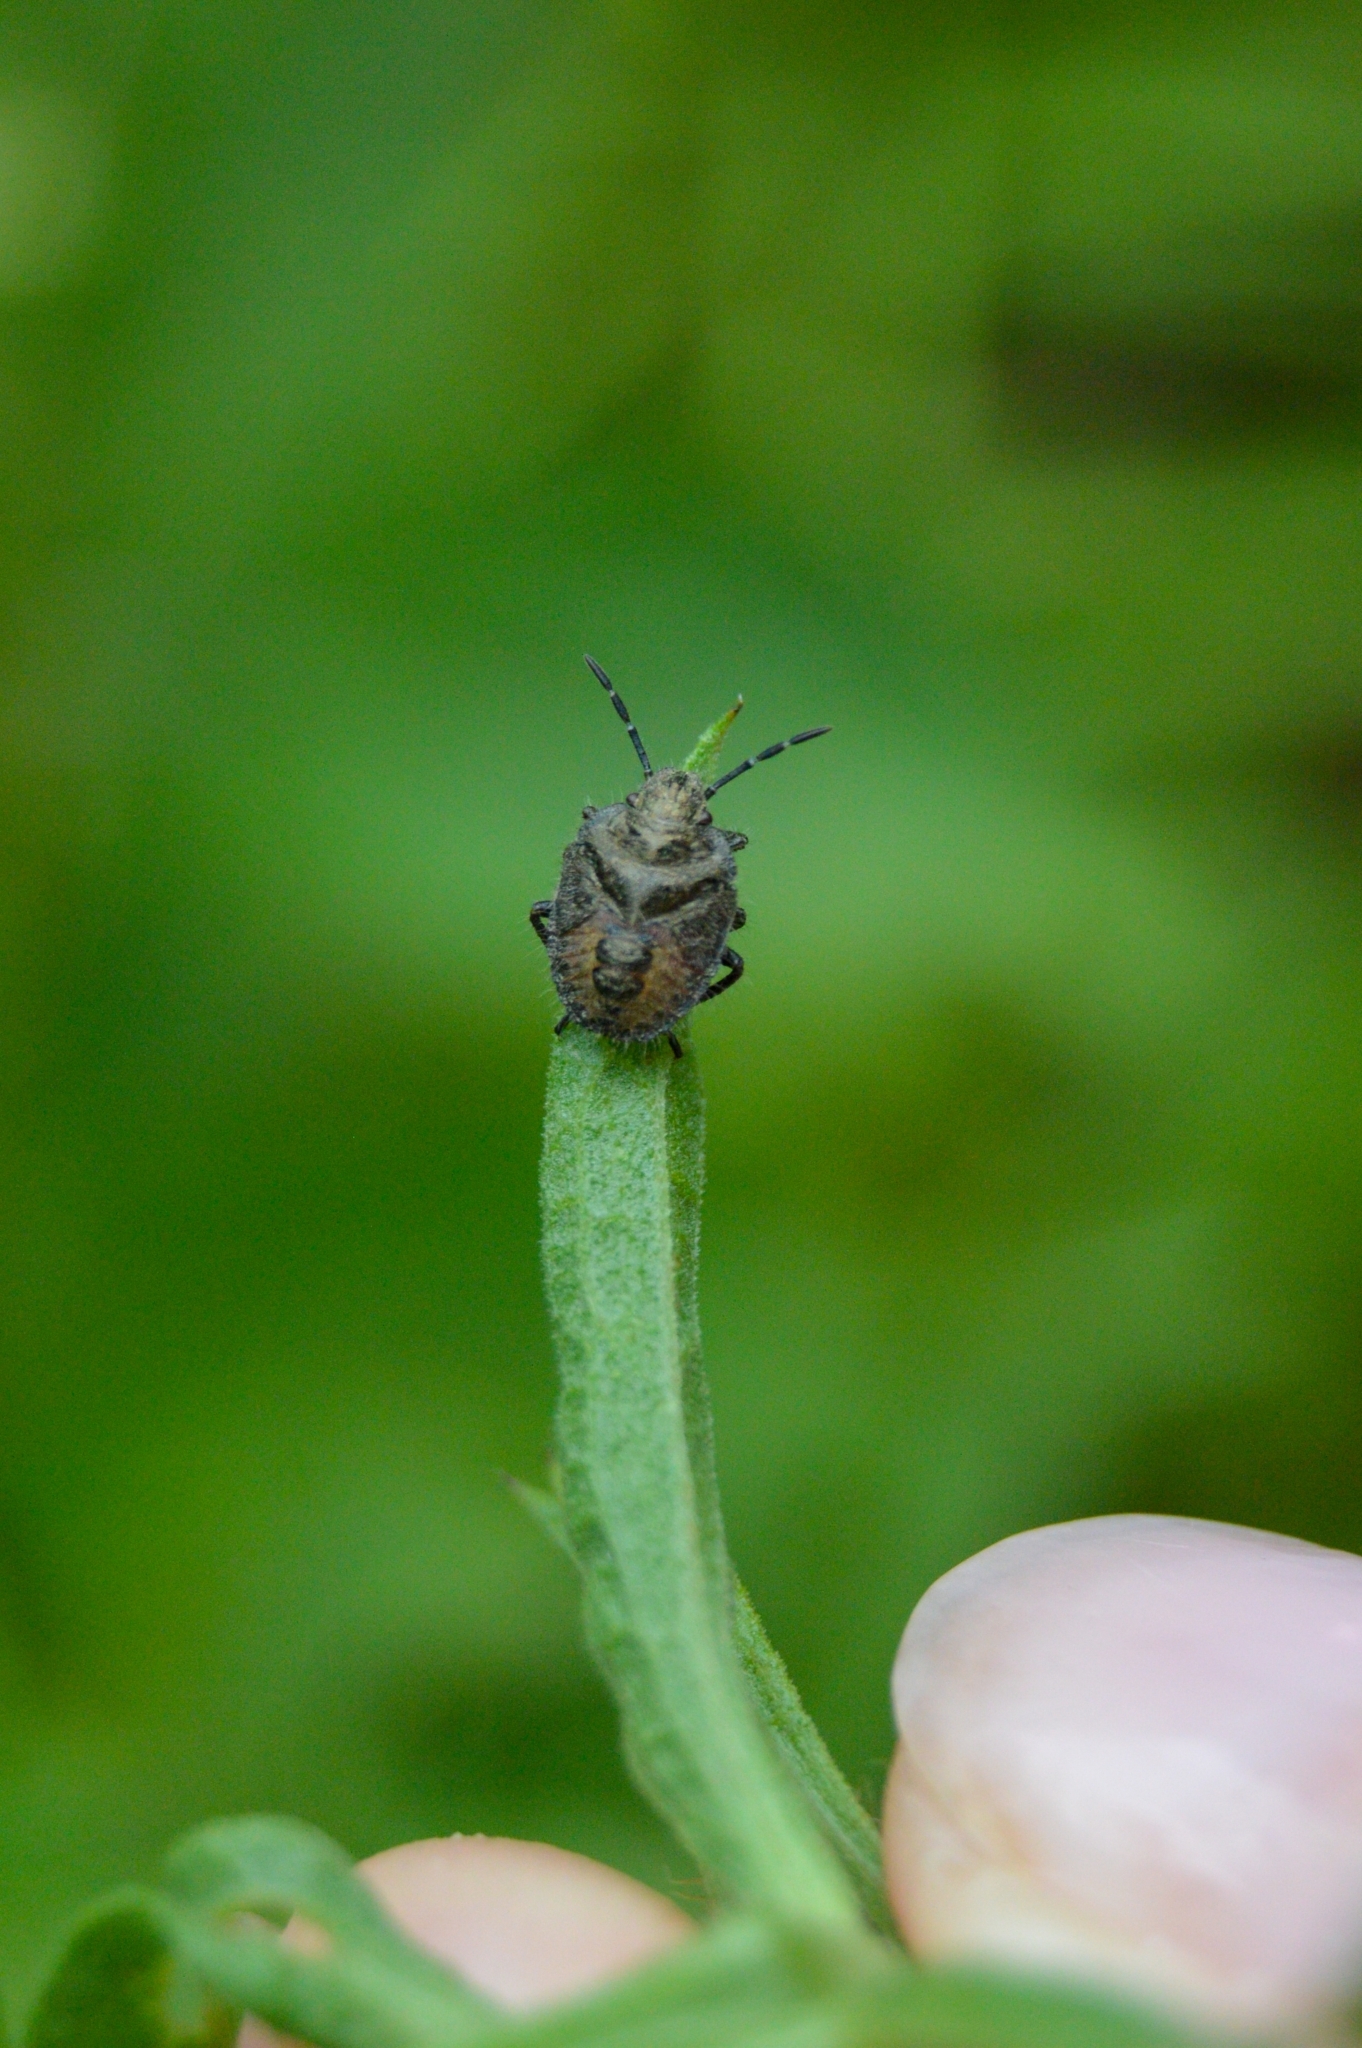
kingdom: Animalia
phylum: Arthropoda
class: Insecta
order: Hemiptera
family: Pentatomidae
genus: Dolycoris
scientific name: Dolycoris baccarum
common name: Sloe bug
